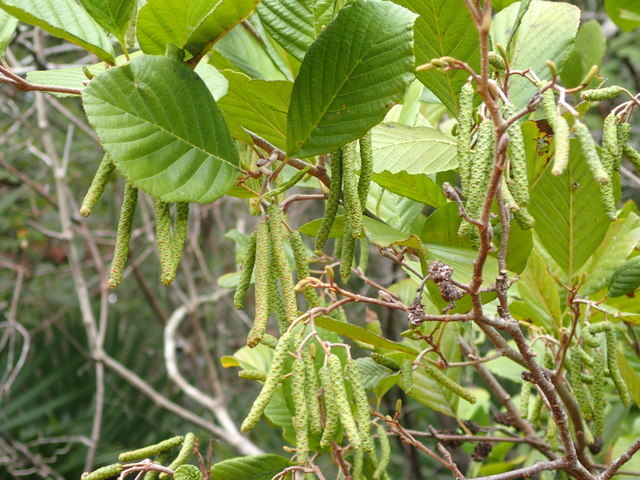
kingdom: Plantae
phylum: Tracheophyta
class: Magnoliopsida
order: Fagales
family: Betulaceae
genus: Alnus
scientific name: Alnus serrulata
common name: Hazel alder
